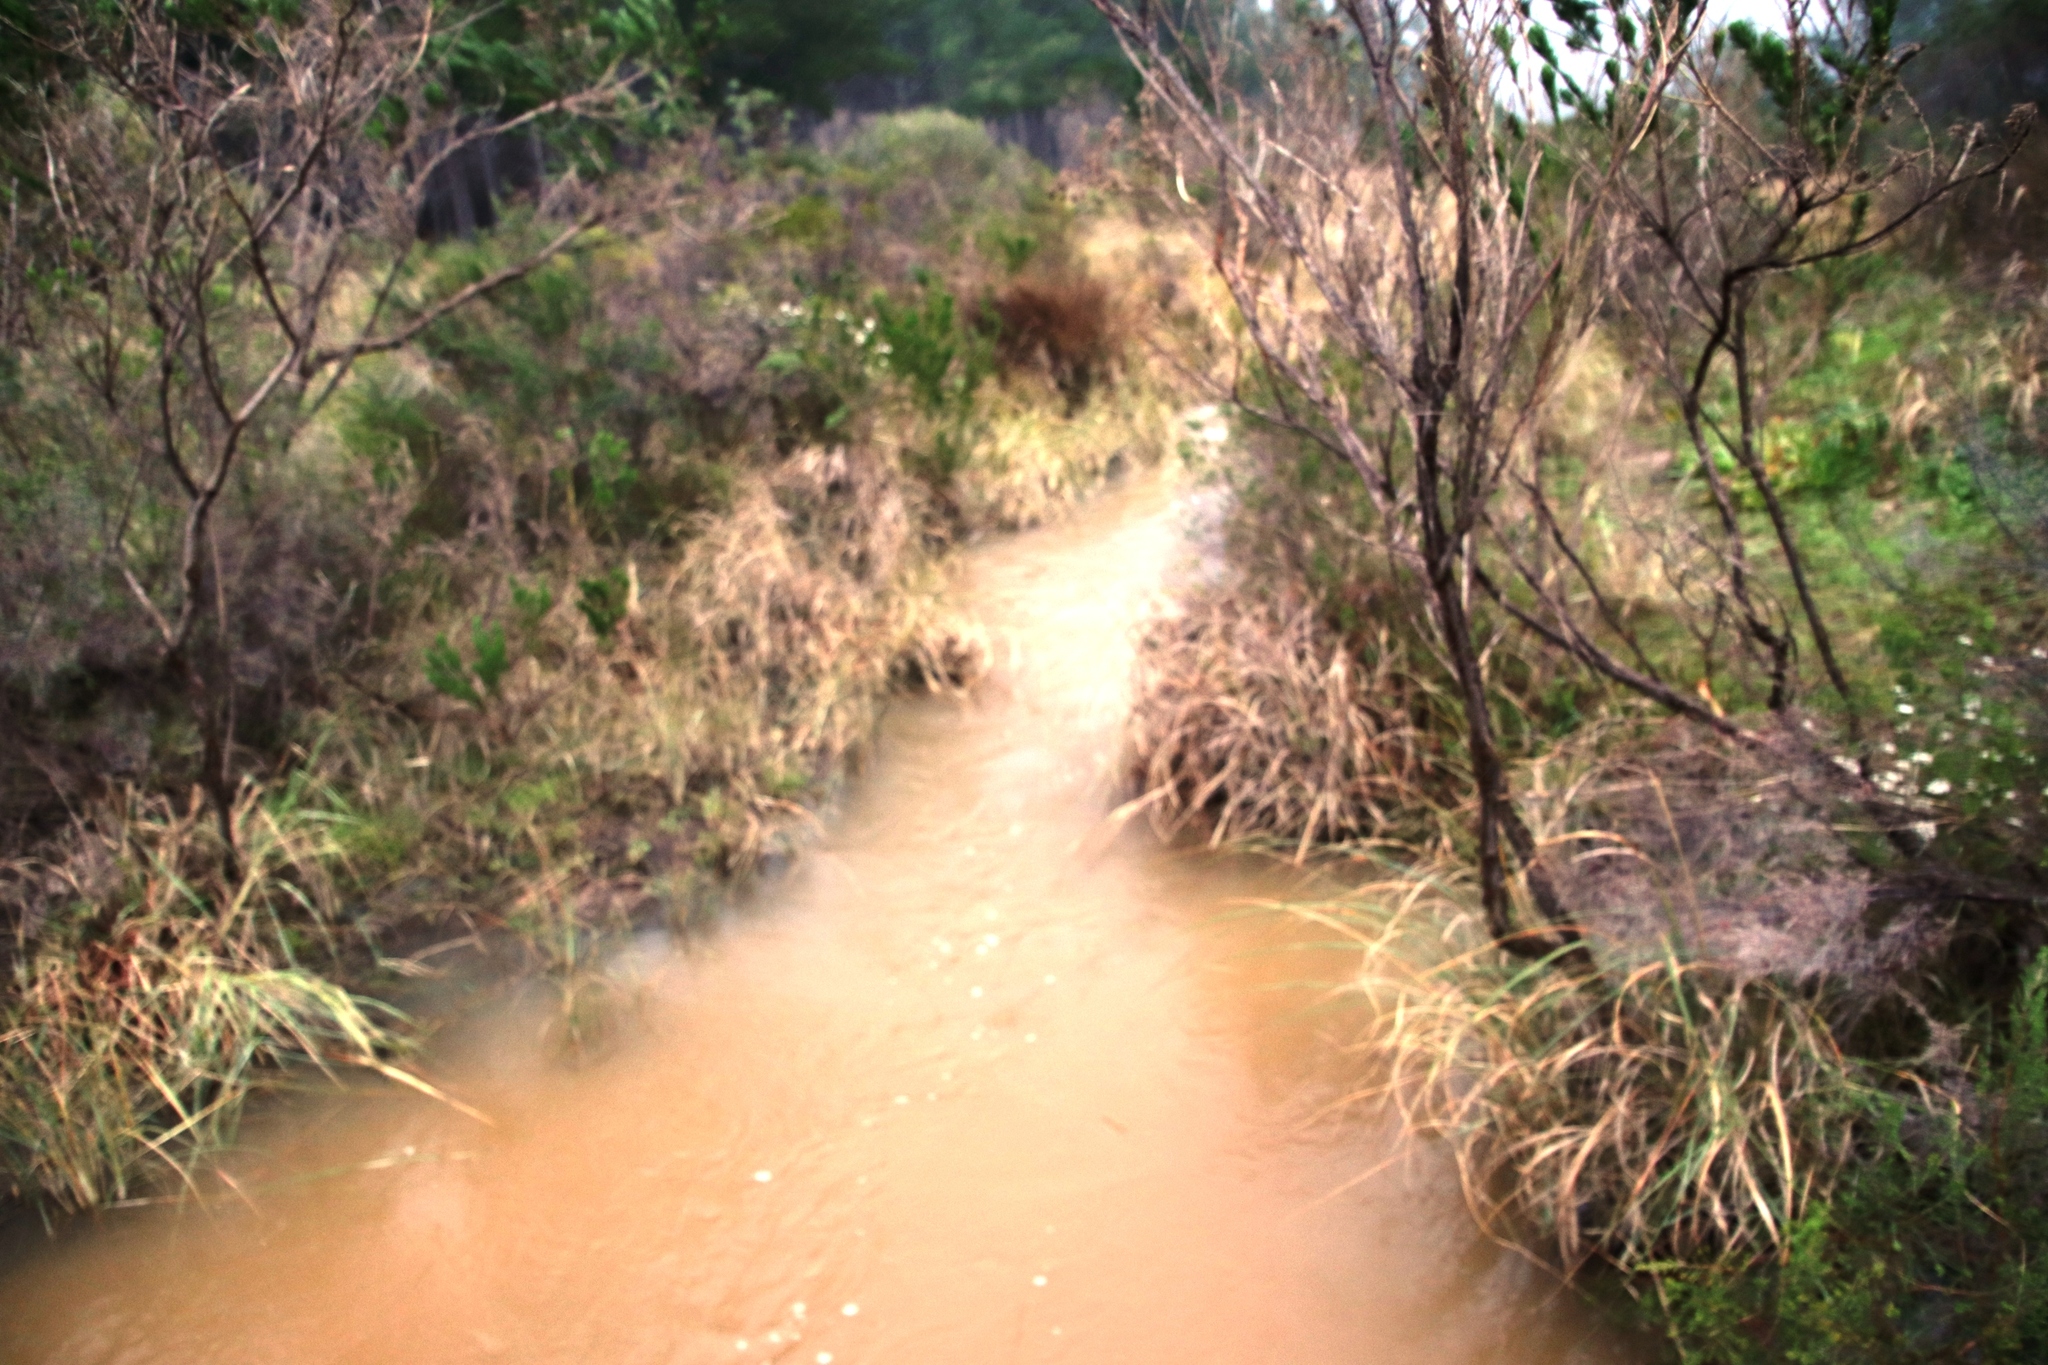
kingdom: Plantae
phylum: Tracheophyta
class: Magnoliopsida
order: Fabales
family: Fabaceae
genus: Psoralea
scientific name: Psoralea pinnata
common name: African scurfpea
